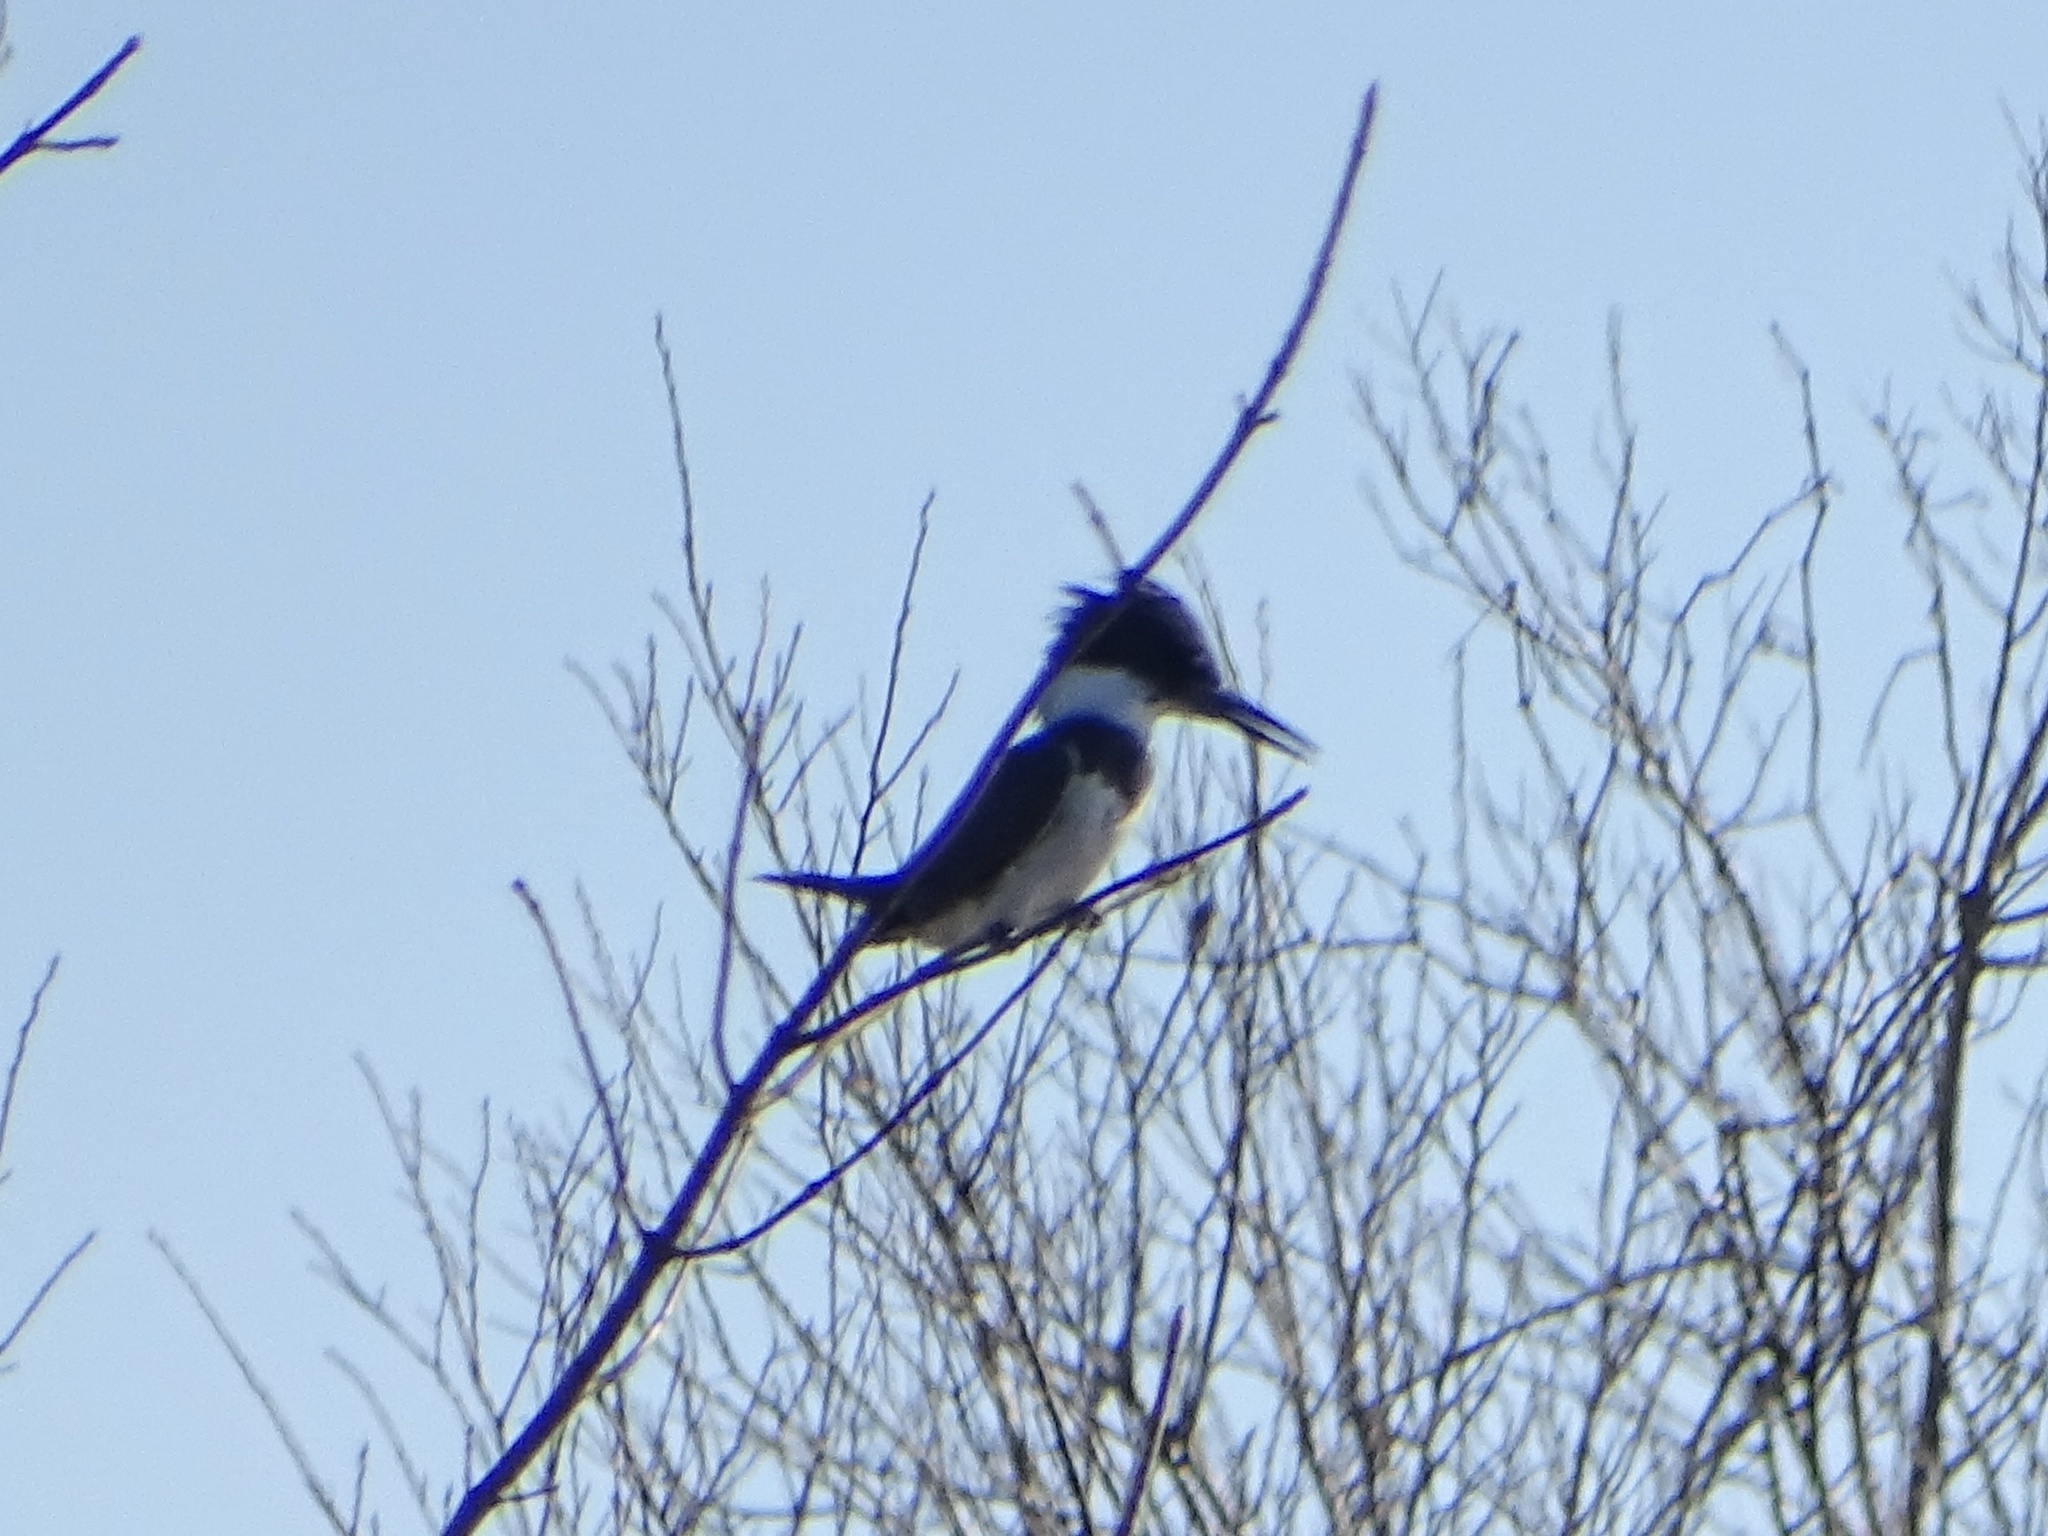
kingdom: Animalia
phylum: Chordata
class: Aves
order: Coraciiformes
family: Alcedinidae
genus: Megaceryle
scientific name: Megaceryle alcyon
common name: Belted kingfisher
